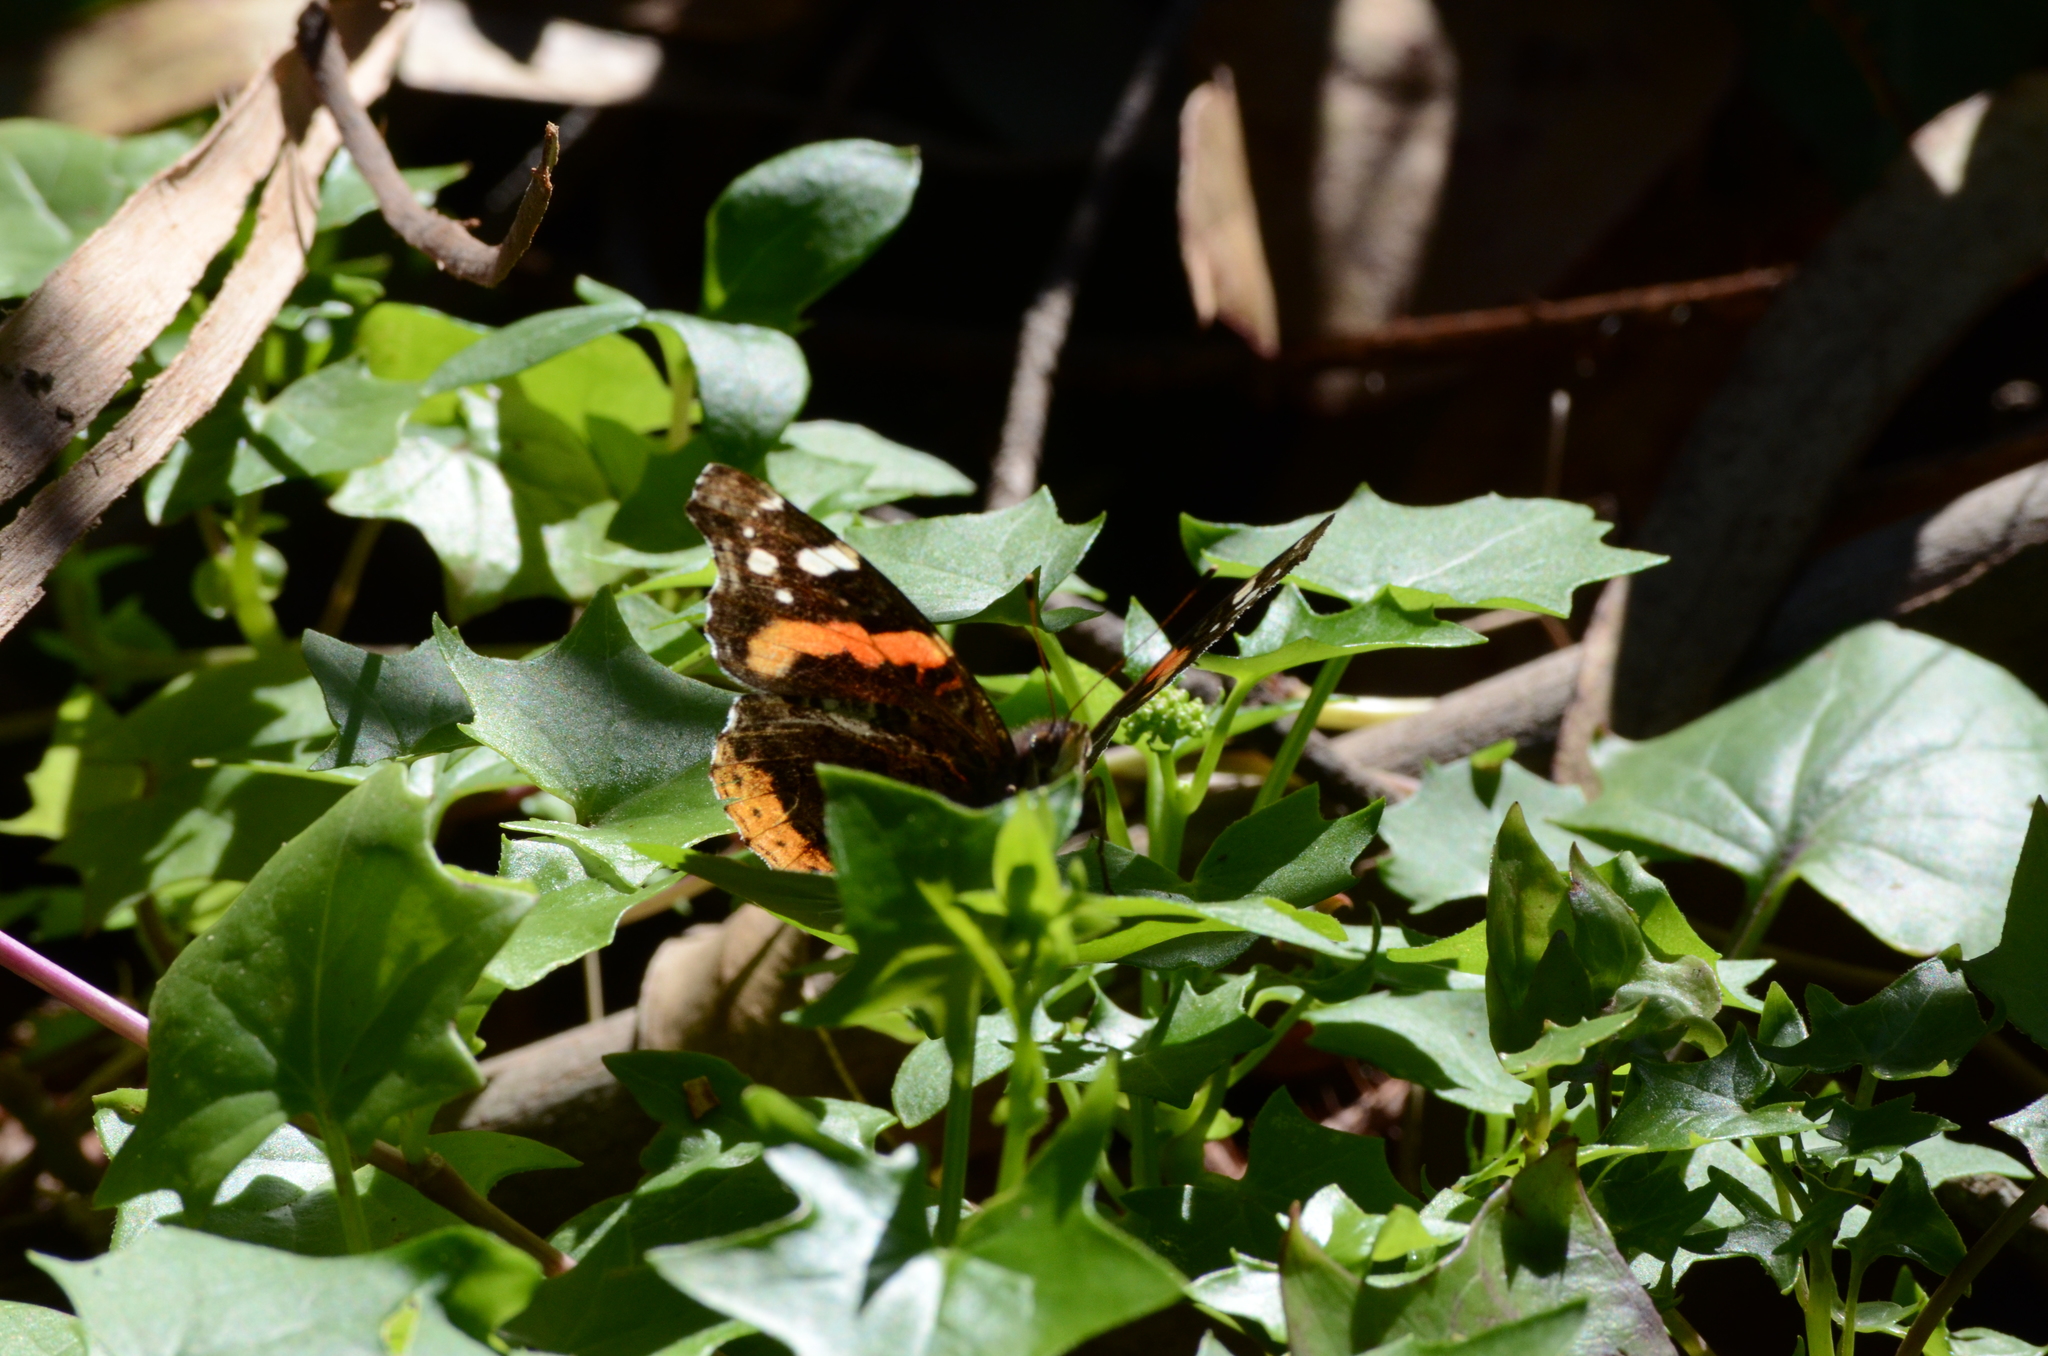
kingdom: Animalia
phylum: Arthropoda
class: Insecta
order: Lepidoptera
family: Nymphalidae
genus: Vanessa
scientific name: Vanessa atalanta
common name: Red admiral
